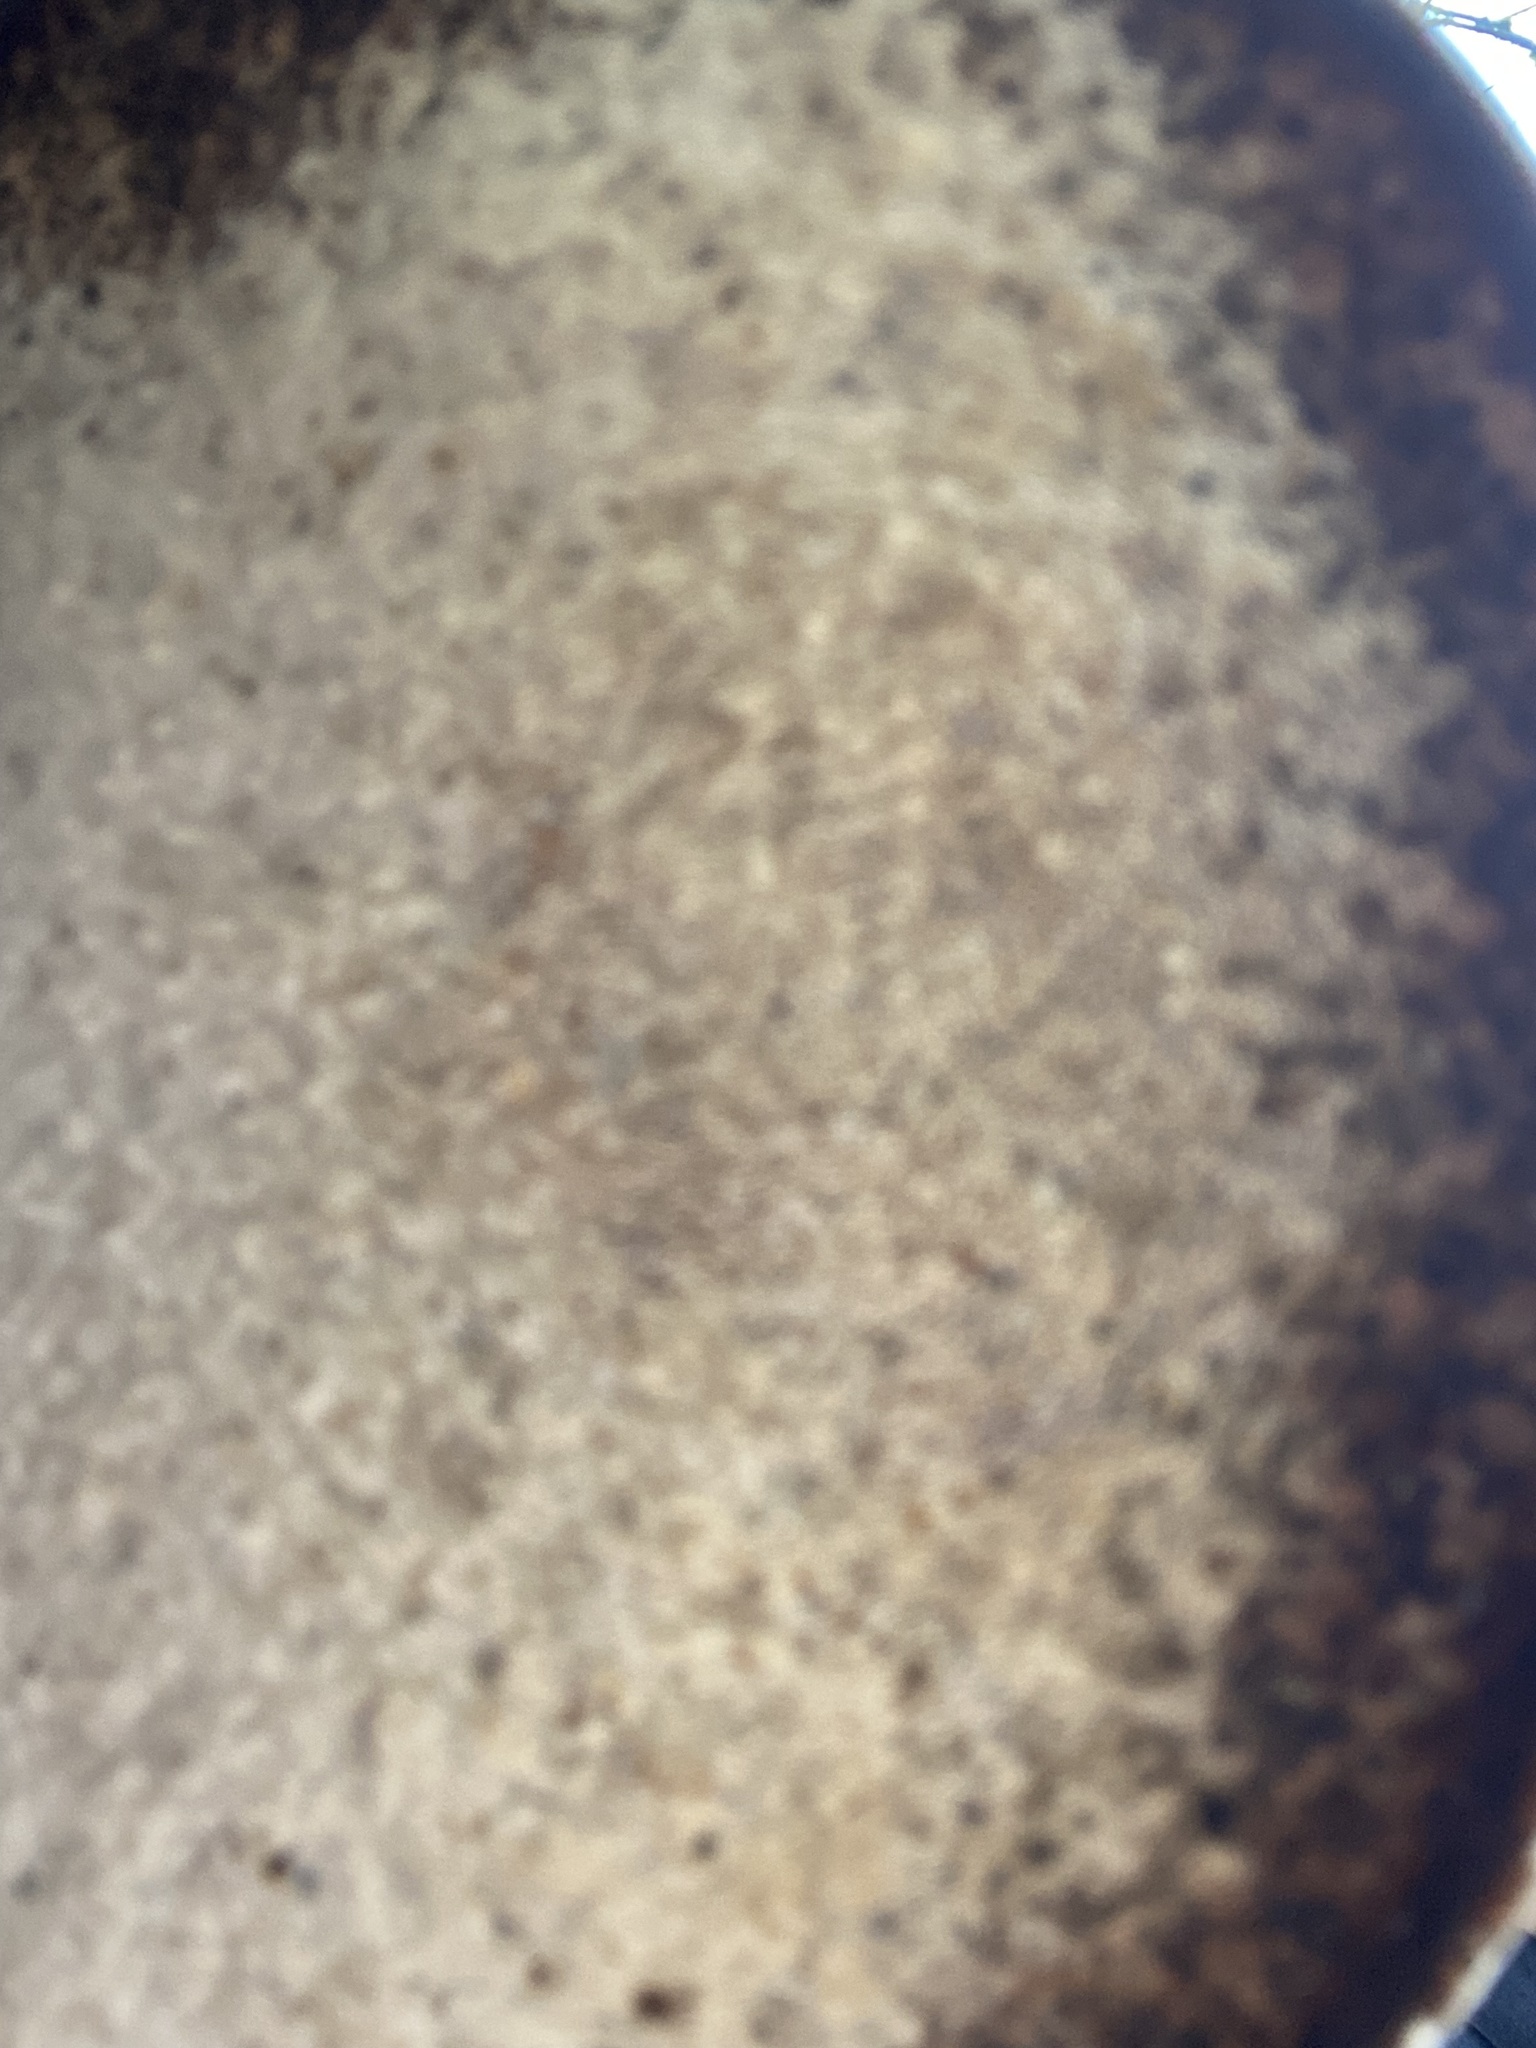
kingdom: Fungi
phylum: Basidiomycota
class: Agaricomycetes
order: Polyporales
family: Fomitopsidaceae
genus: Fomitopsis
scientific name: Fomitopsis betulina
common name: Birch polypore
